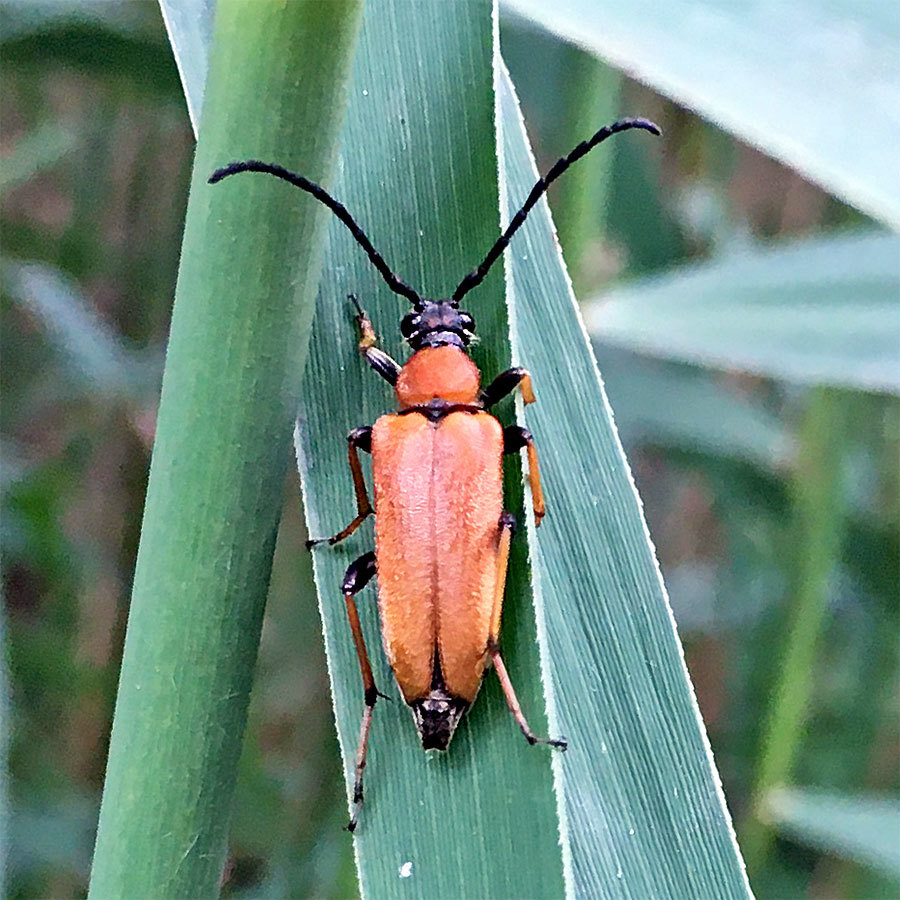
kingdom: Animalia
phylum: Arthropoda
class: Insecta
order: Coleoptera
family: Cerambycidae
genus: Stictoleptura
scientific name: Stictoleptura rubra
